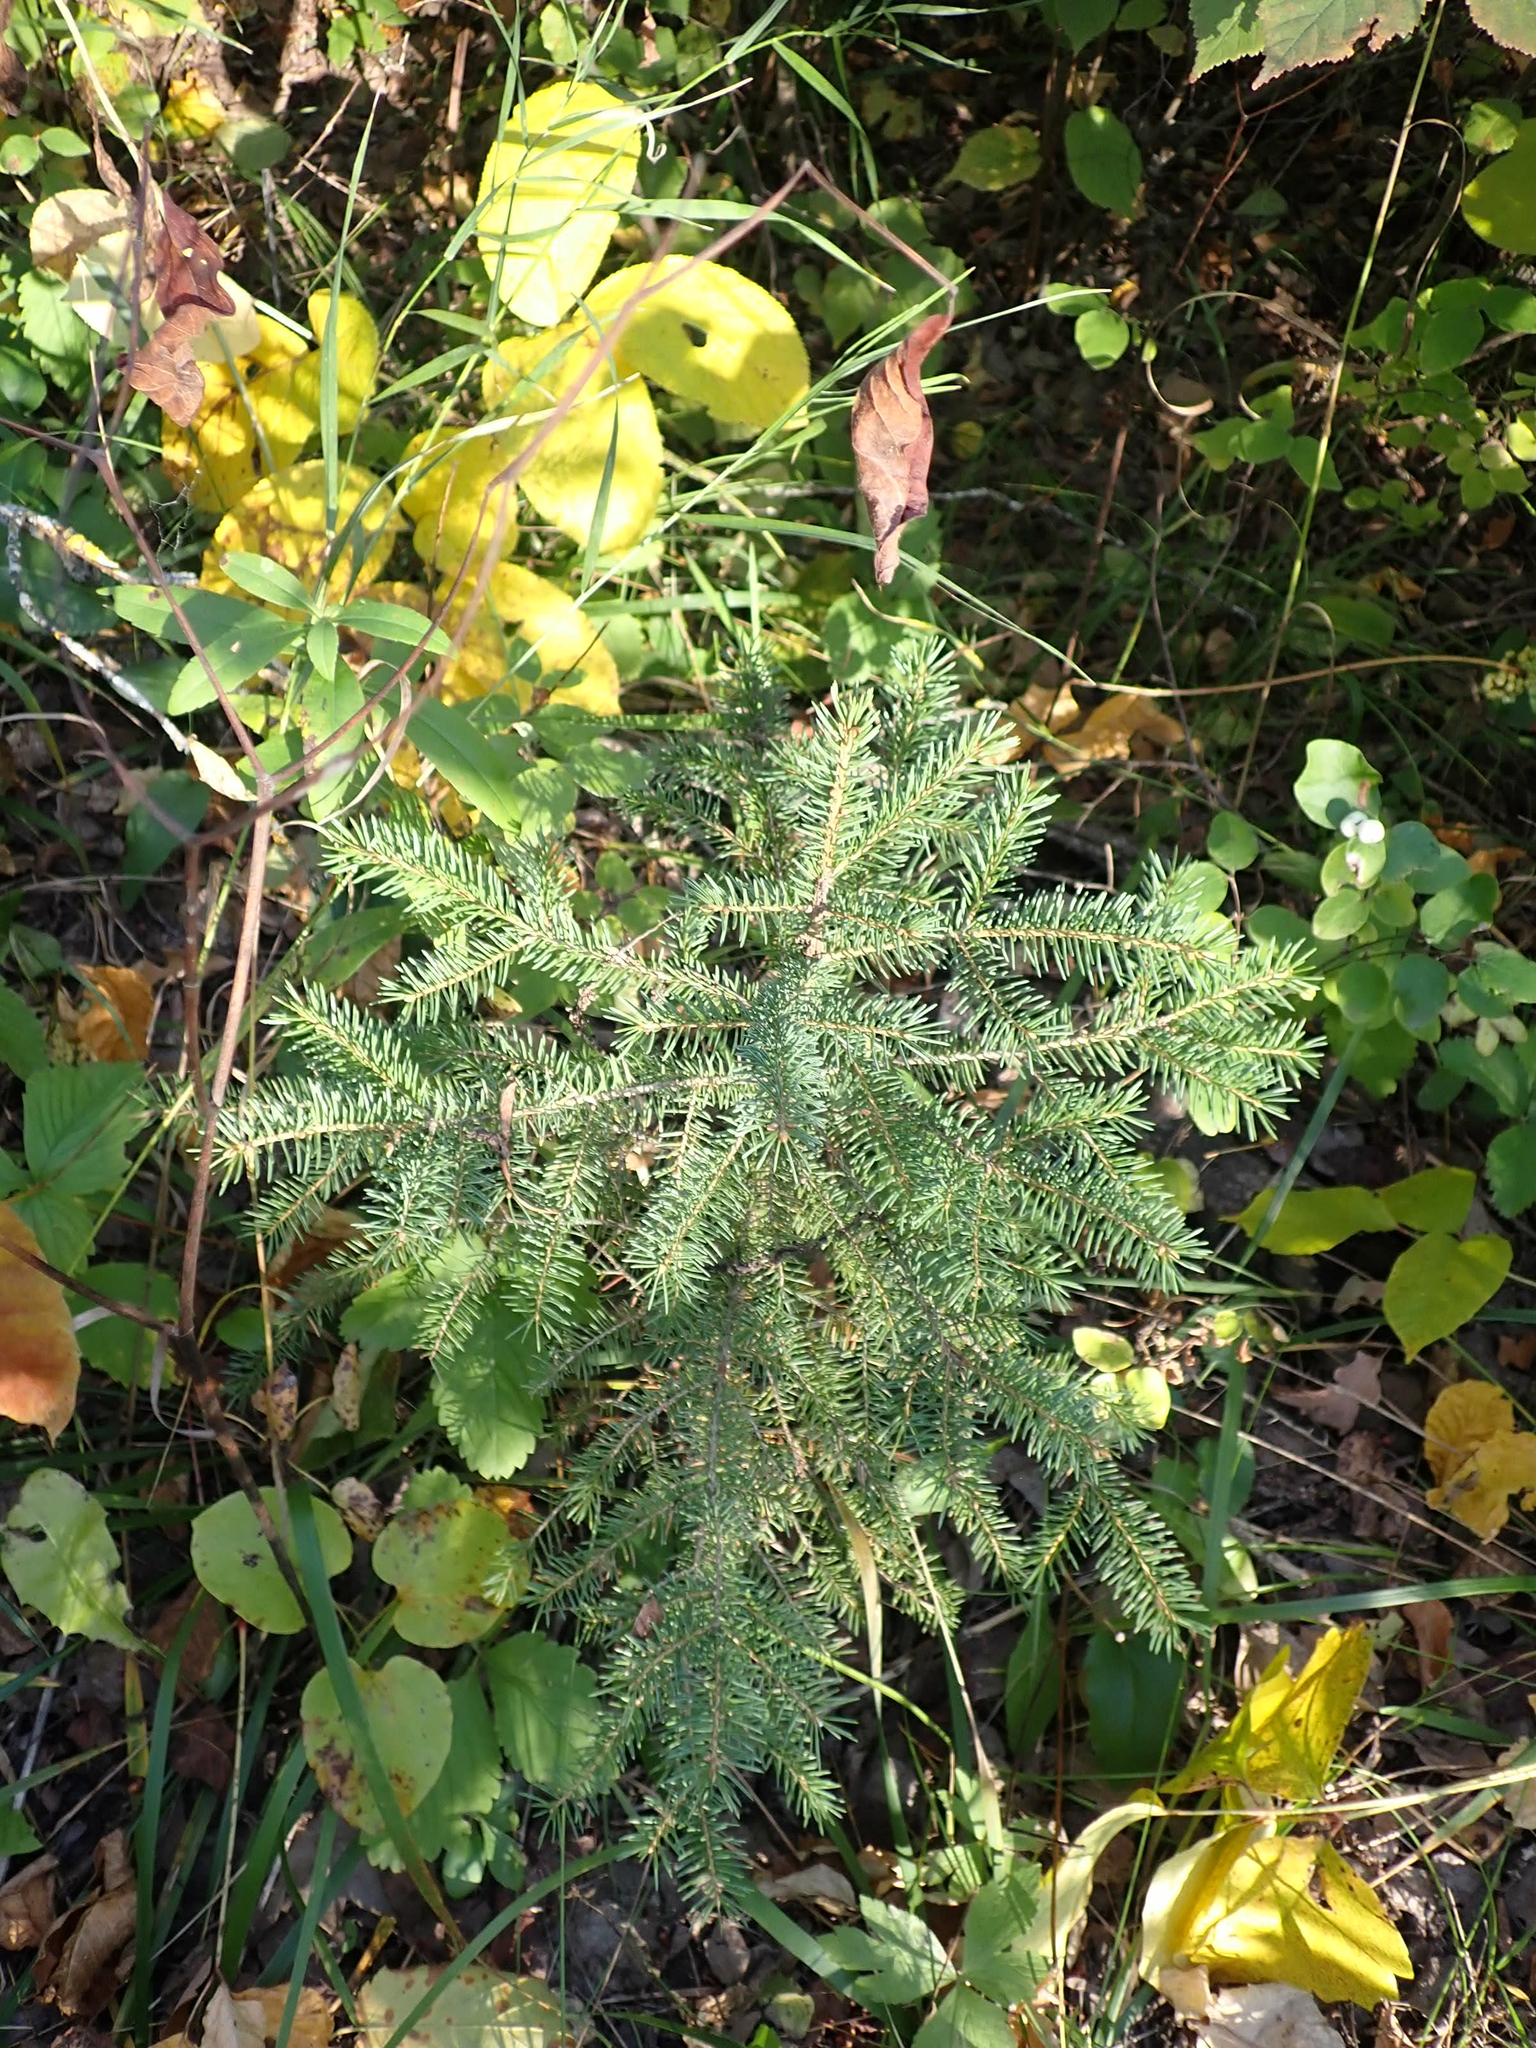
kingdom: Plantae
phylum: Tracheophyta
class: Pinopsida
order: Pinales
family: Pinaceae
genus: Picea
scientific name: Picea glauca
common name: White spruce
